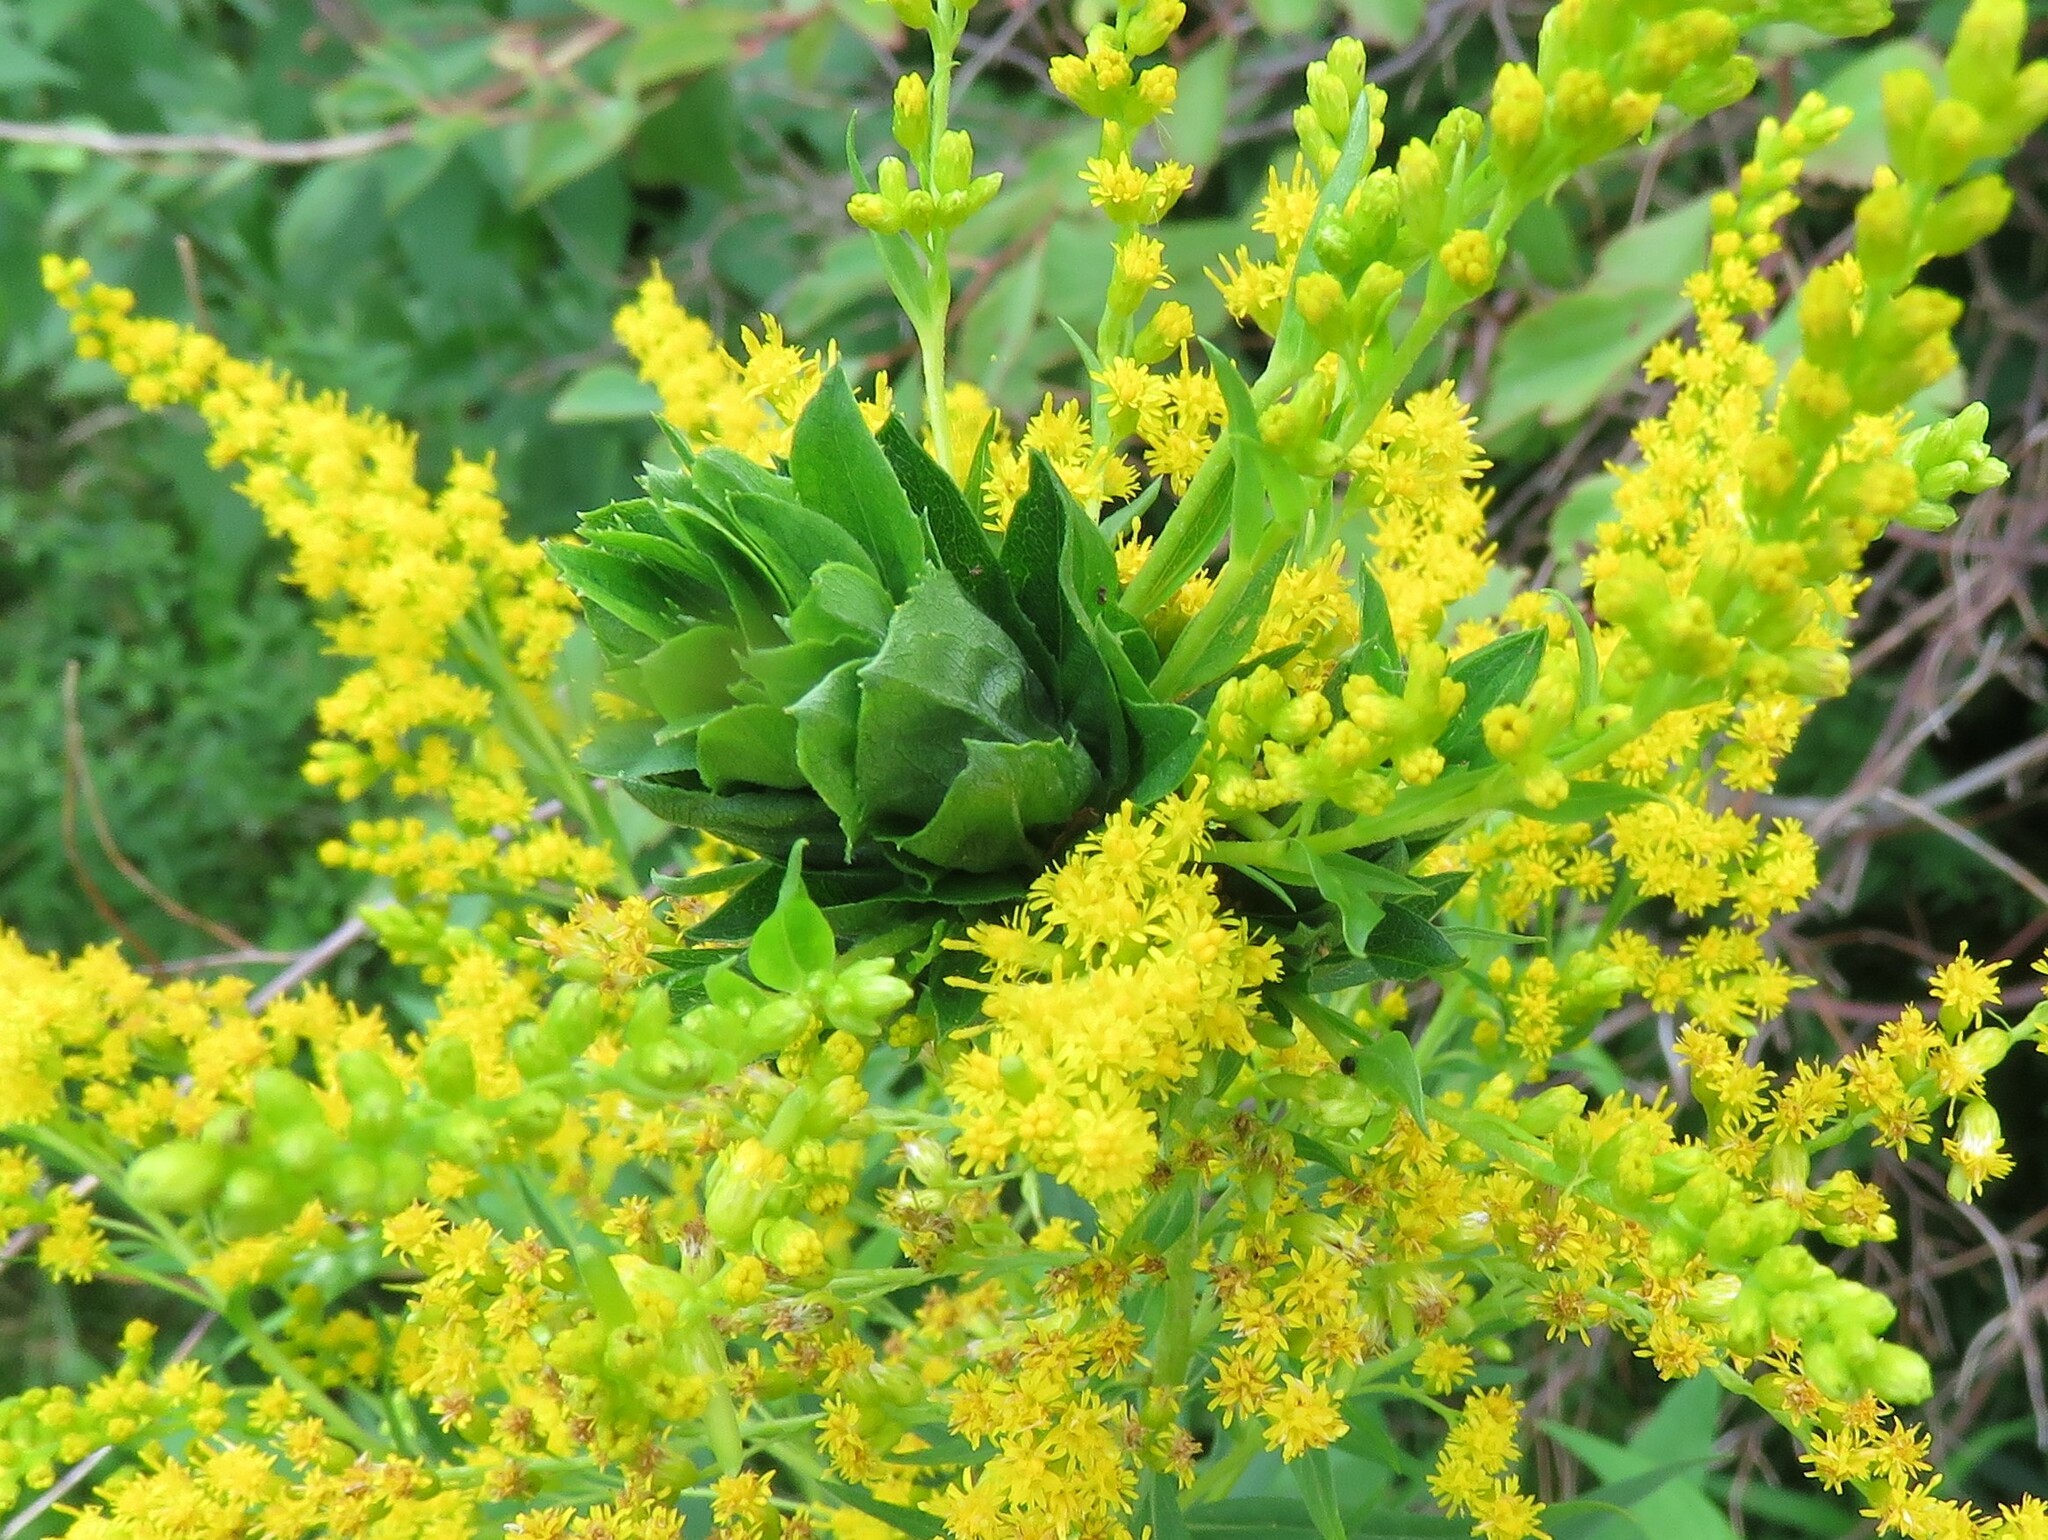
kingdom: Animalia
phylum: Arthropoda
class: Insecta
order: Diptera
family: Cecidomyiidae
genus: Rhopalomyia
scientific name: Rhopalomyia solidaginis
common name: Goldenrod bunch gall midge
